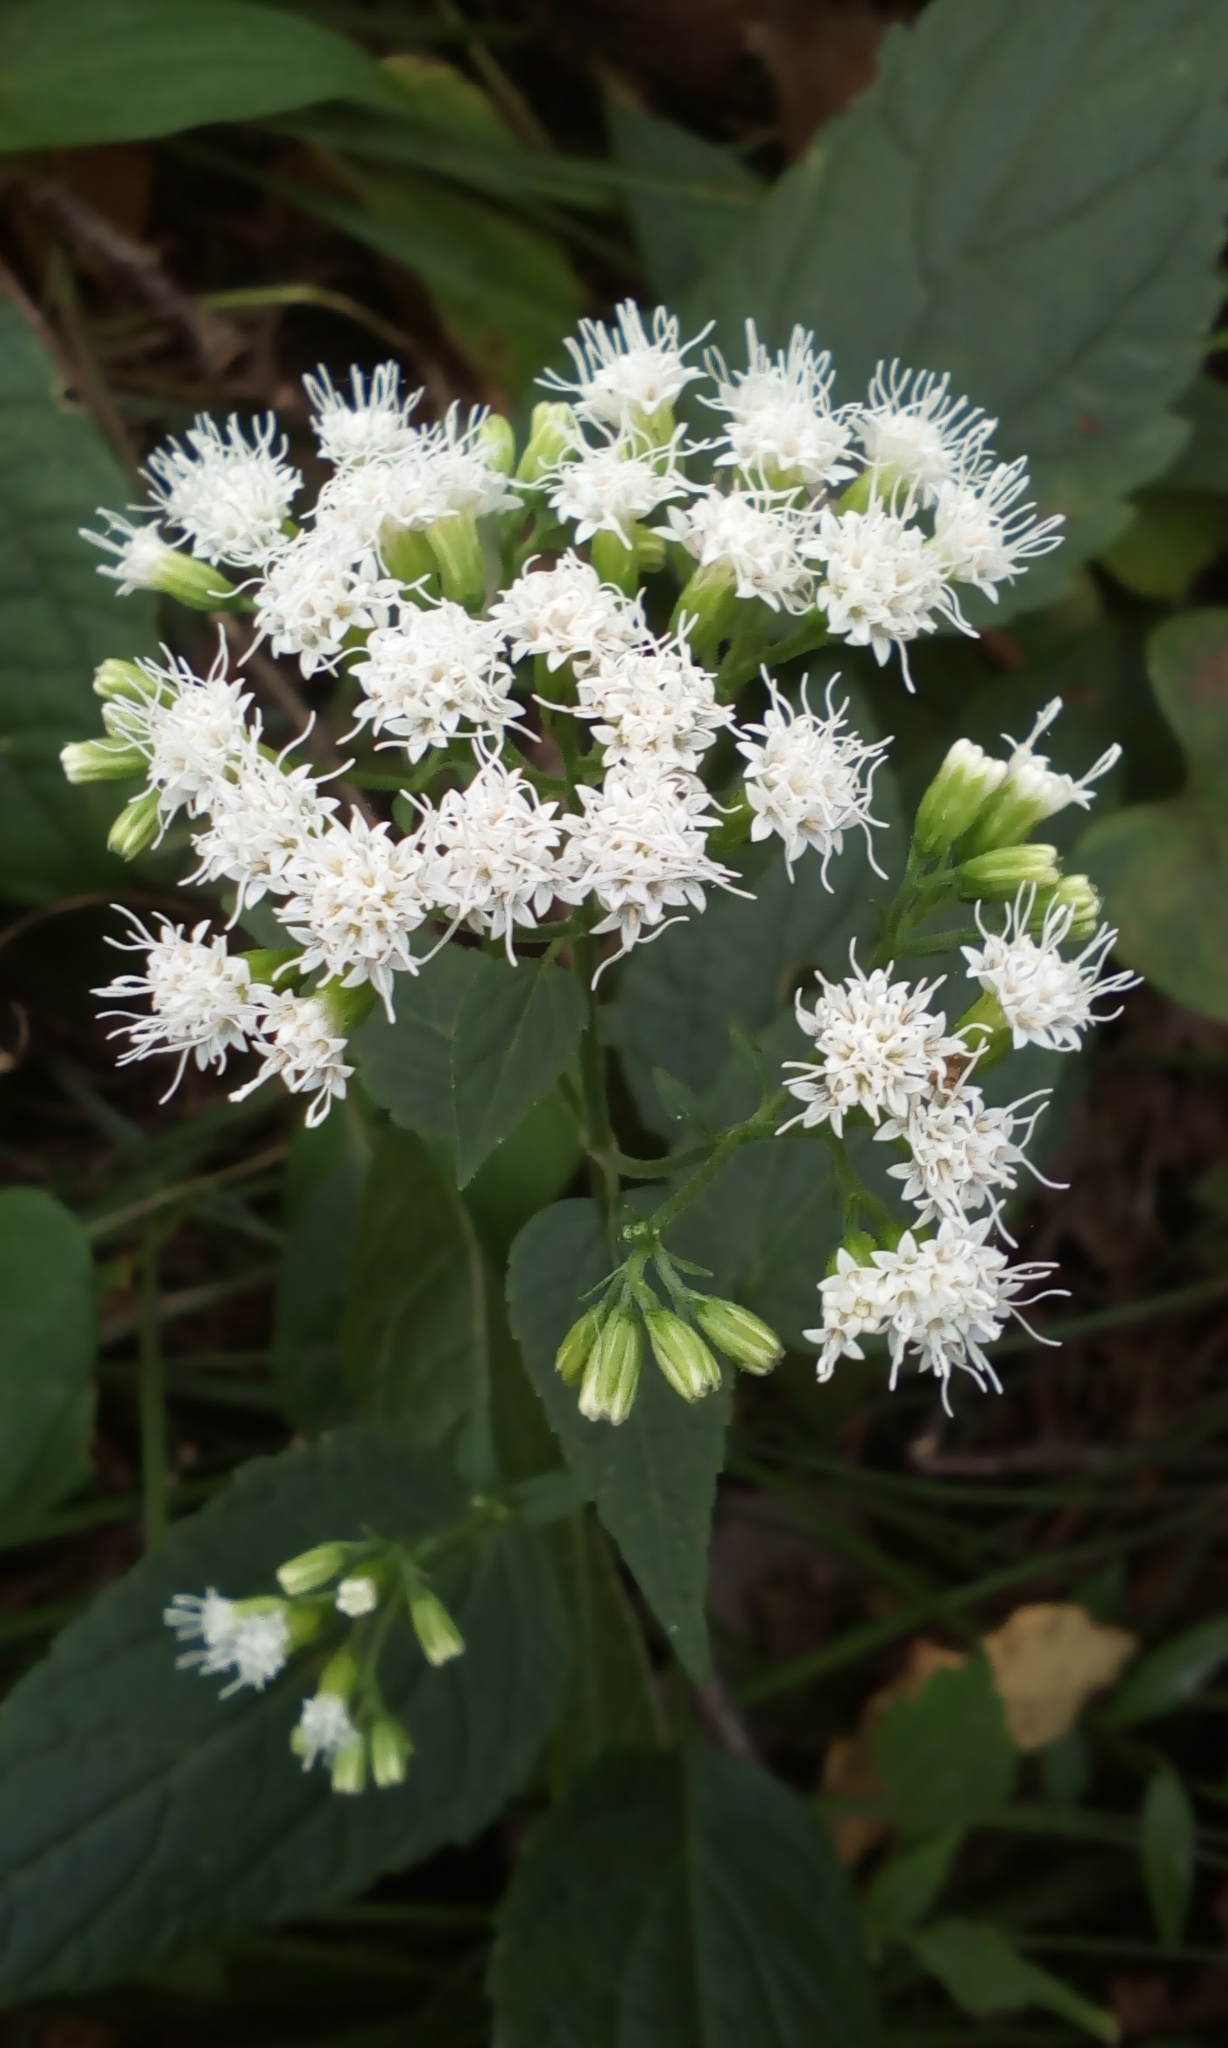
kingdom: Plantae
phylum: Tracheophyta
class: Magnoliopsida
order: Asterales
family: Asteraceae
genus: Ageratina
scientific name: Ageratina altissima
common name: White snakeroot
